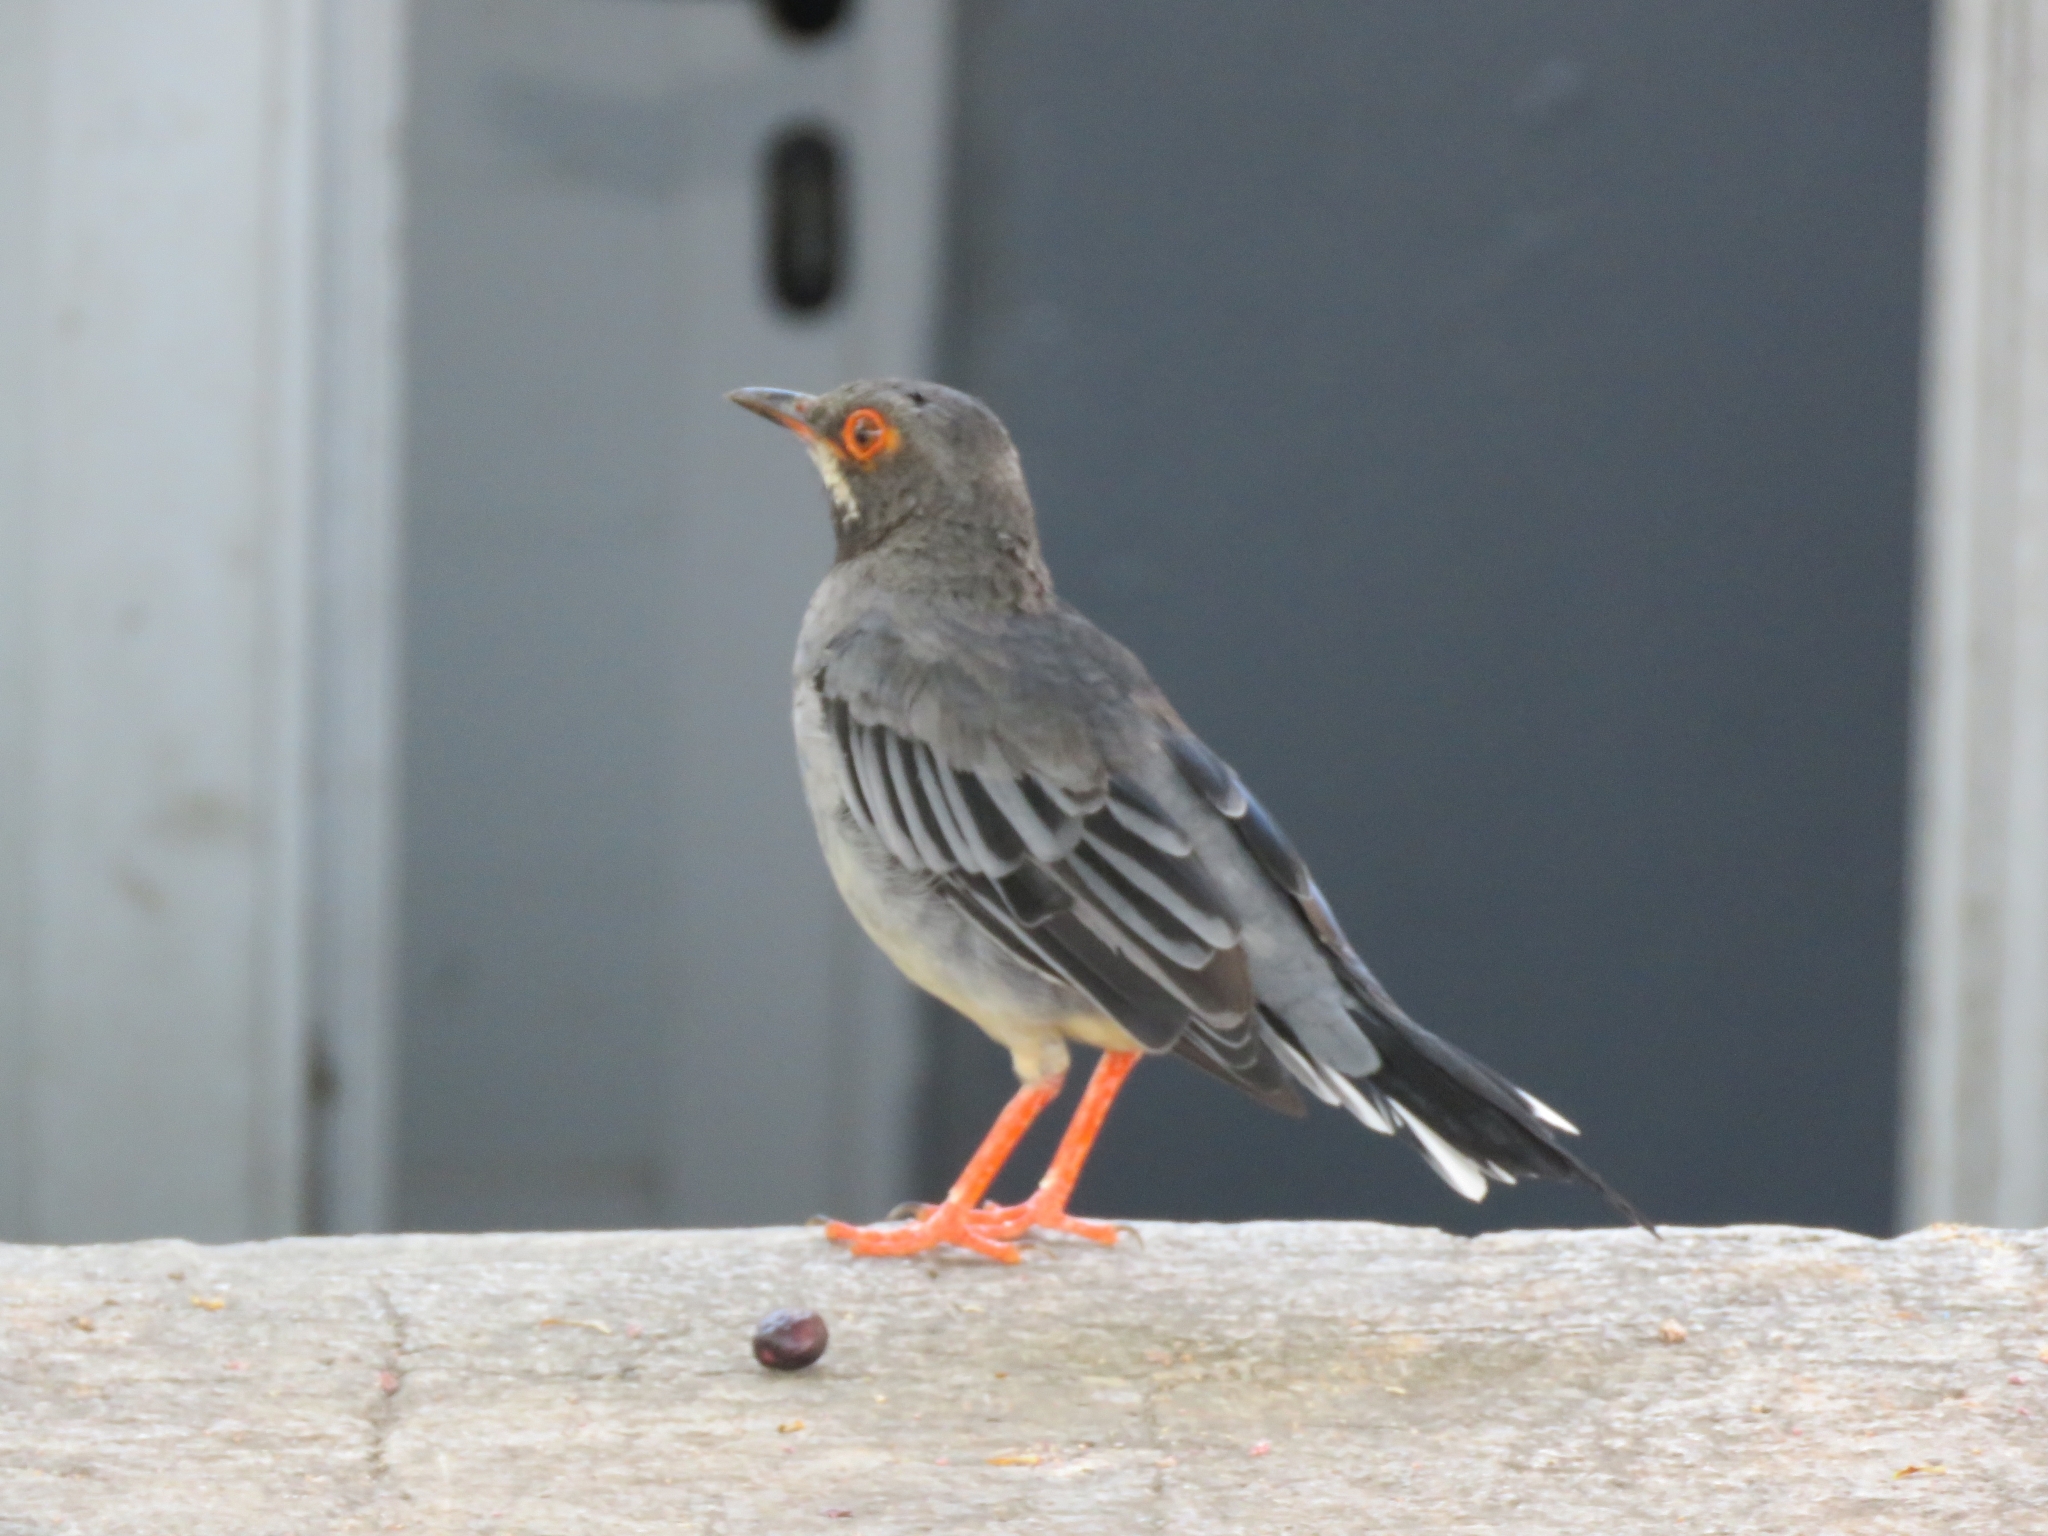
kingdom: Animalia
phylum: Chordata
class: Aves
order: Passeriformes
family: Turdidae
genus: Turdus
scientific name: Turdus plumbeus
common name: Red-legged thrush
